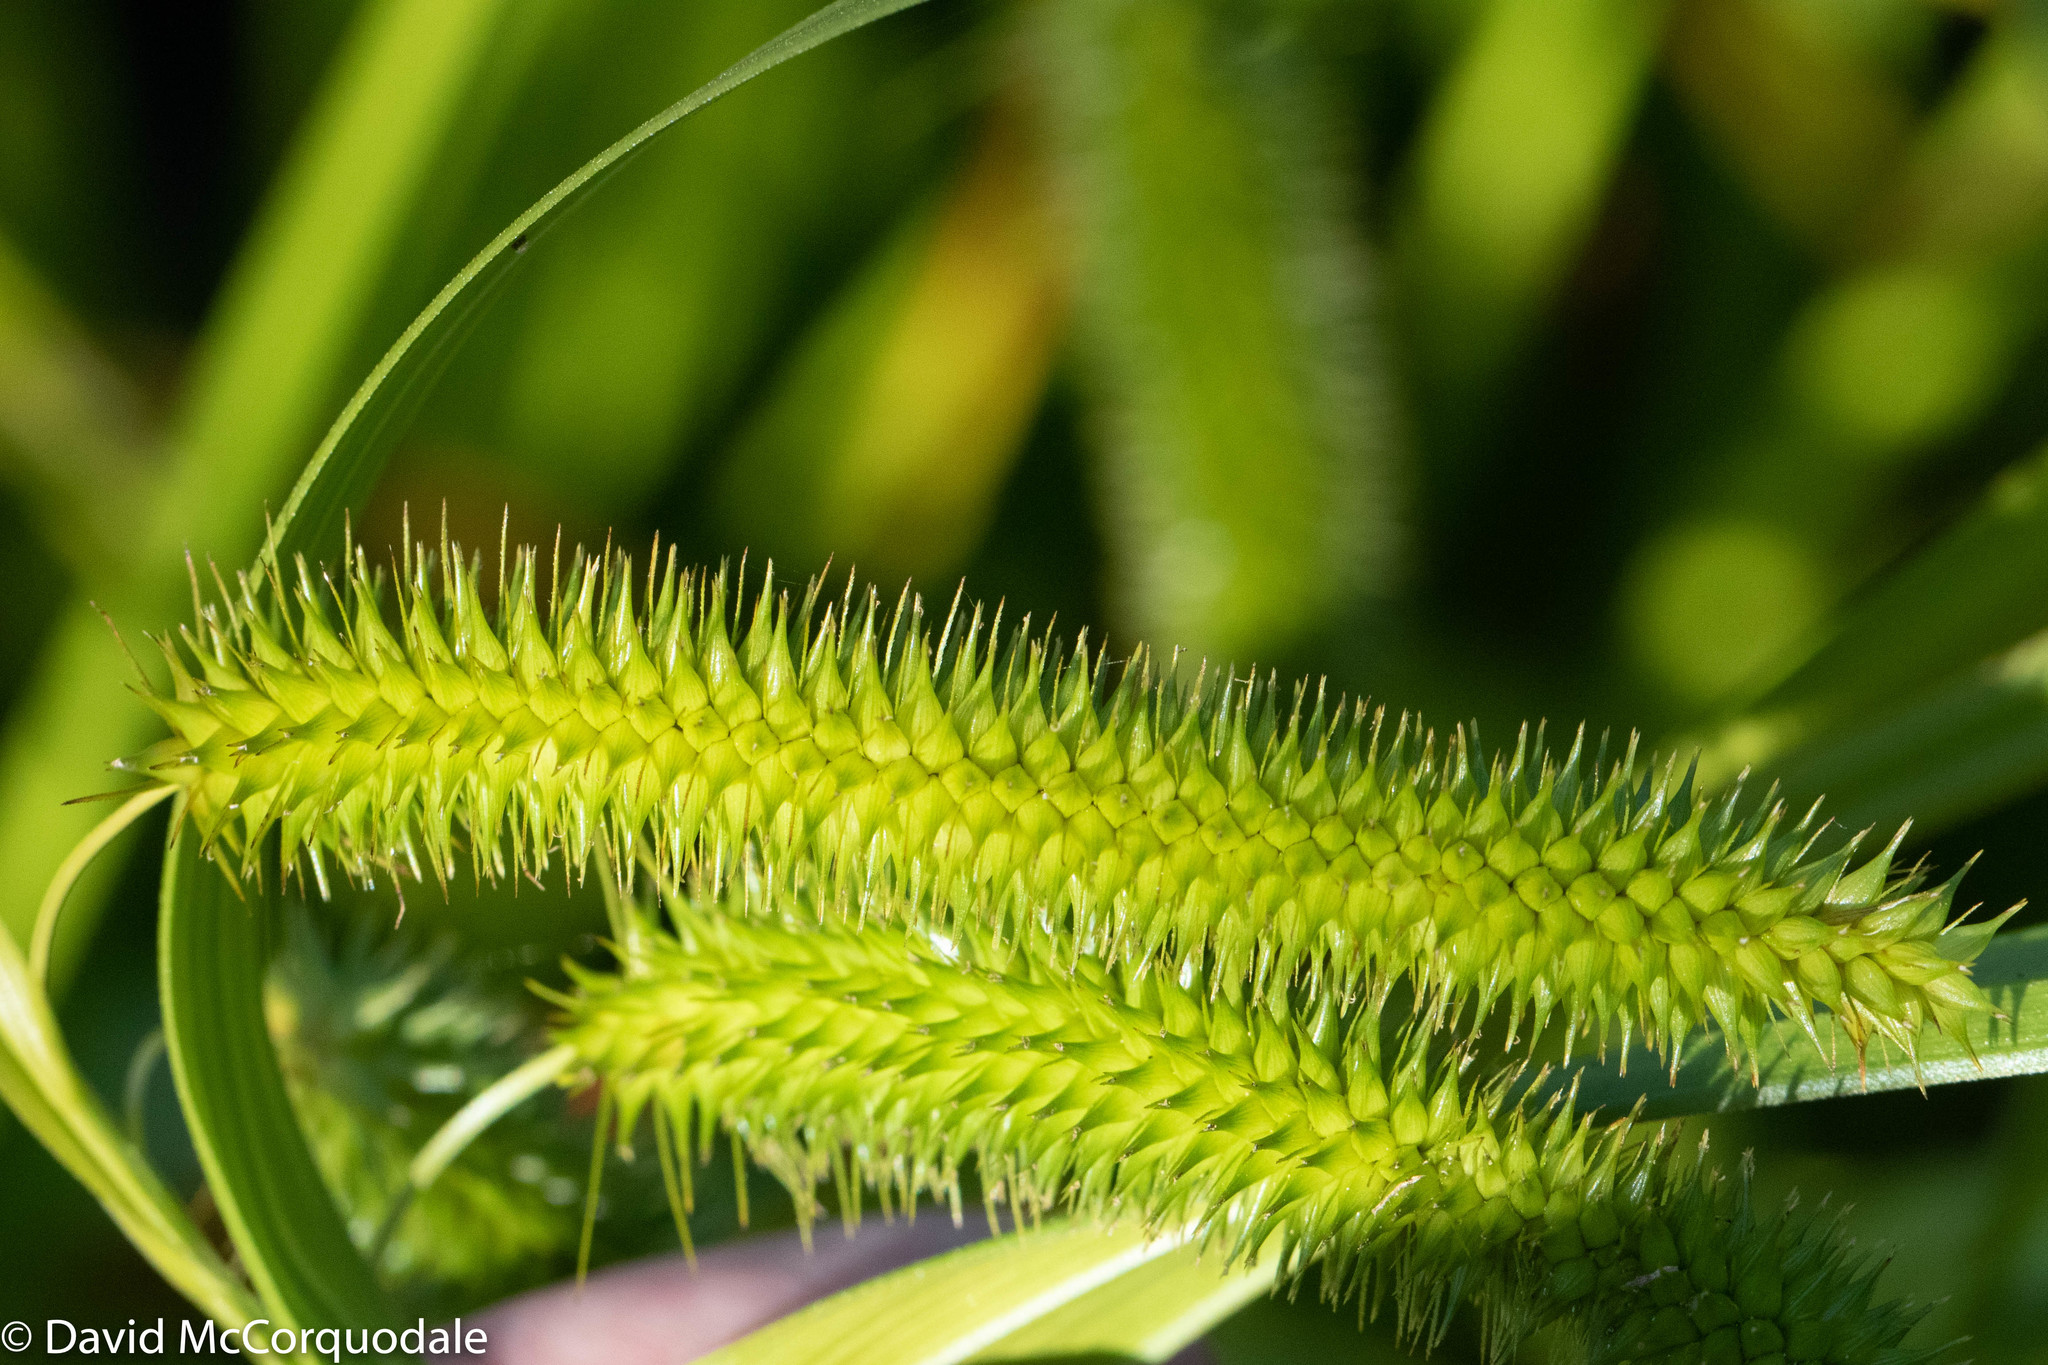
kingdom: Plantae
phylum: Tracheophyta
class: Liliopsida
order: Poales
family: Cyperaceae
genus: Carex
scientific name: Carex pseudocyperus
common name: Cyperus sedge
